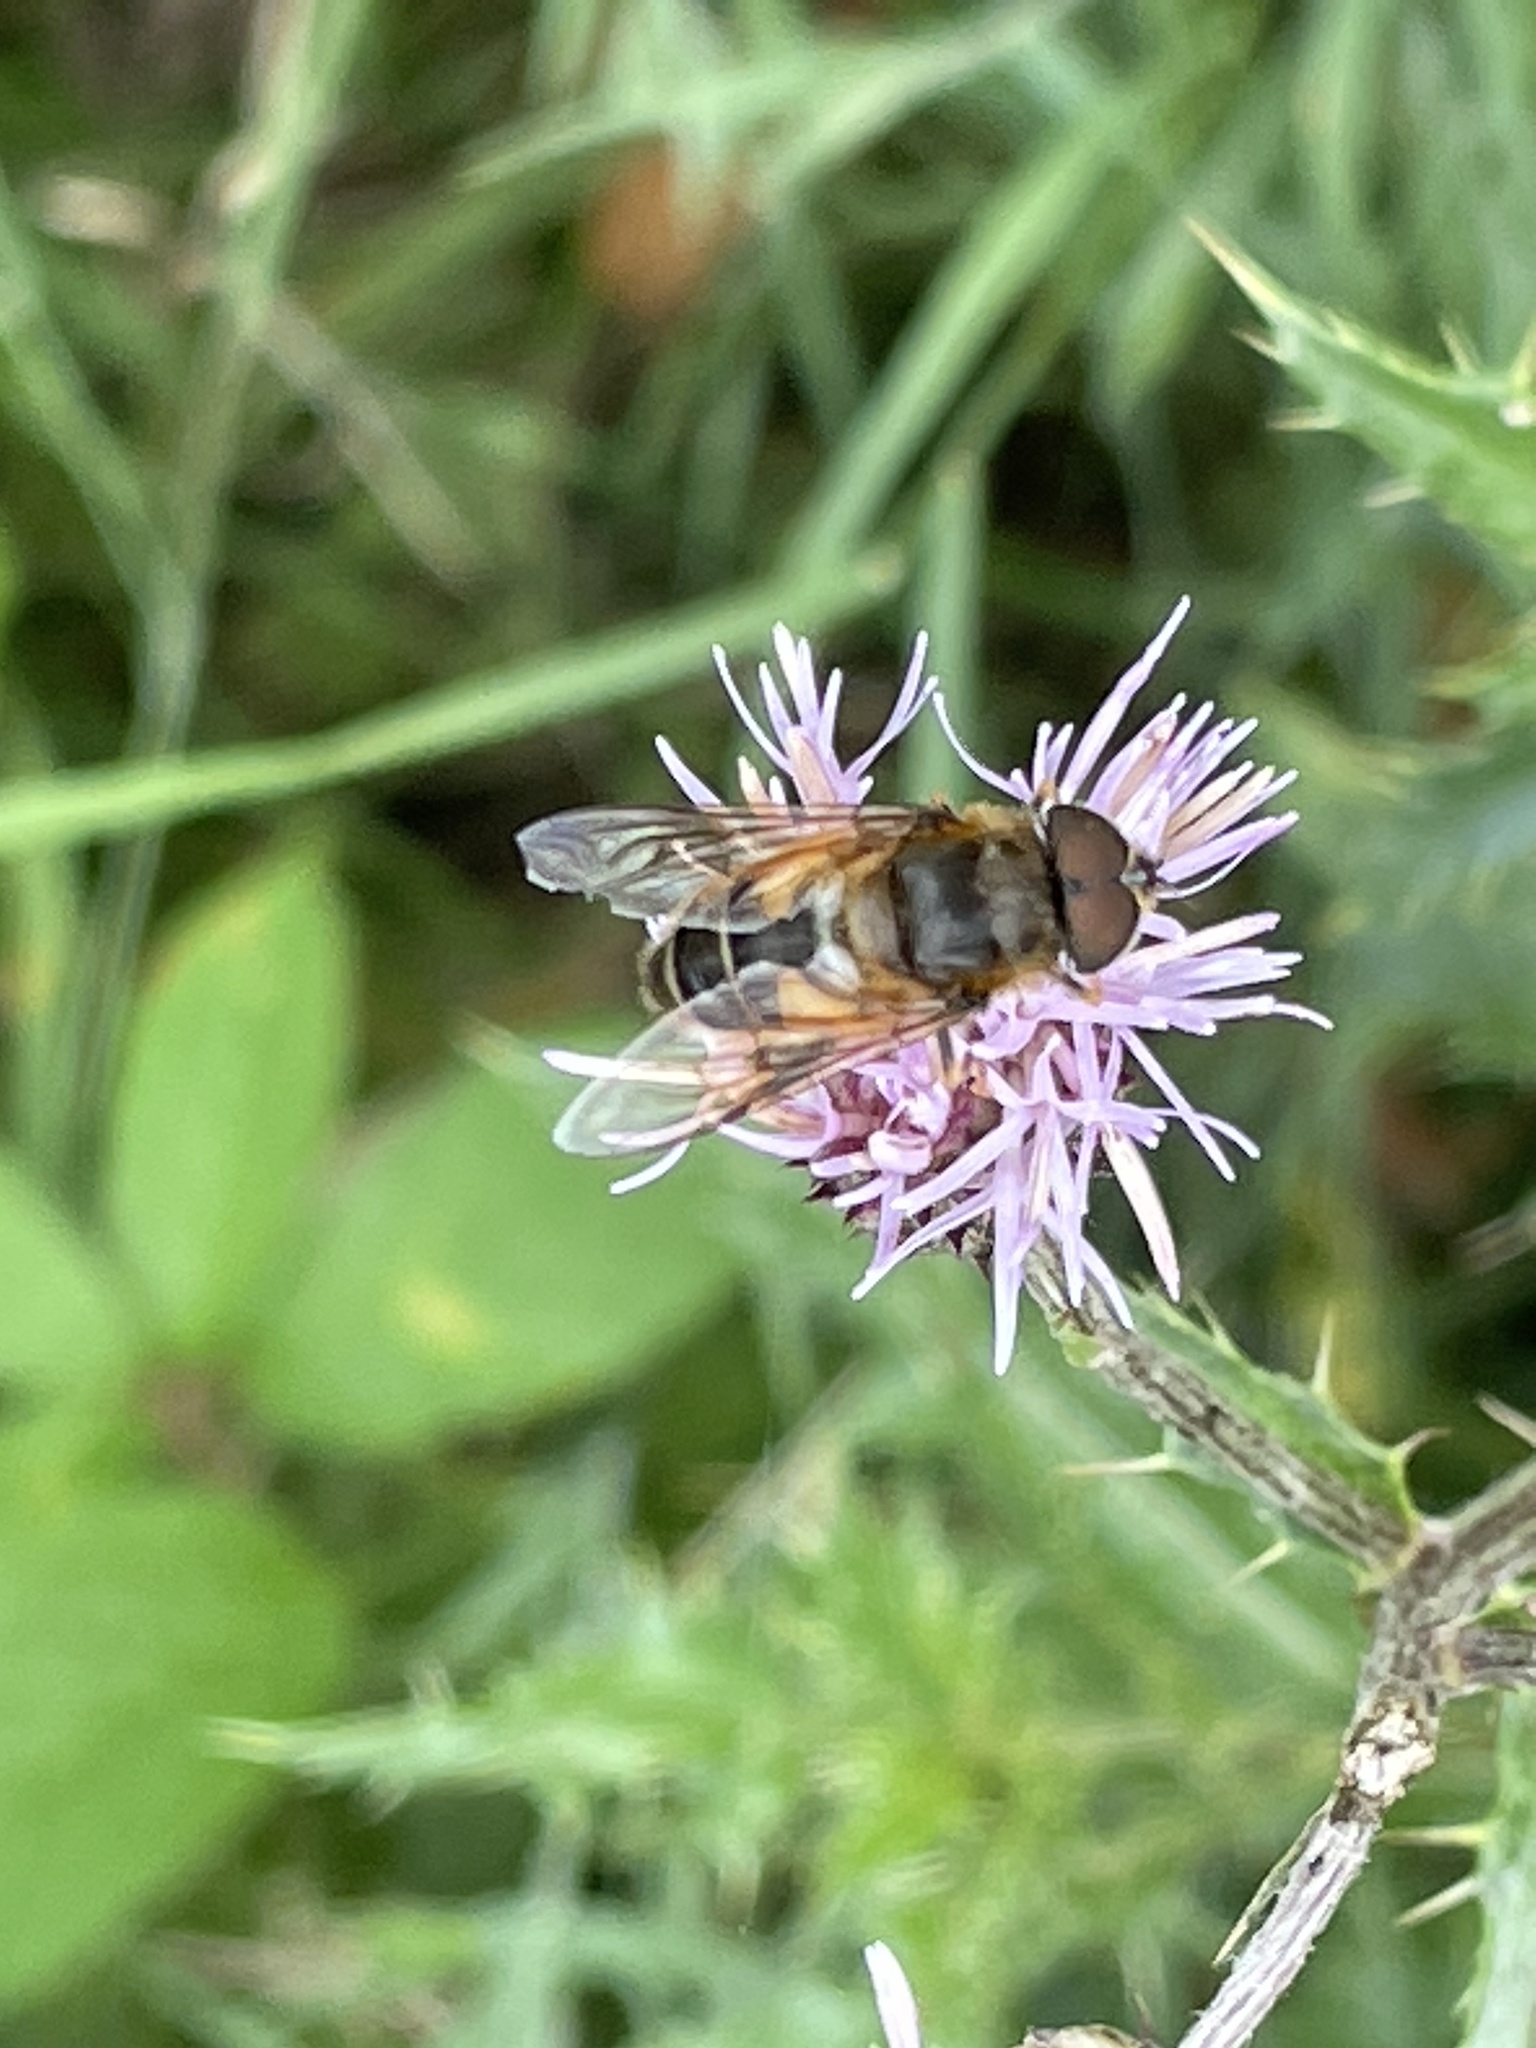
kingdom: Animalia
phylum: Arthropoda
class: Insecta
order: Diptera
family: Syrphidae
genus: Eristalis
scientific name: Eristalis pertinax
